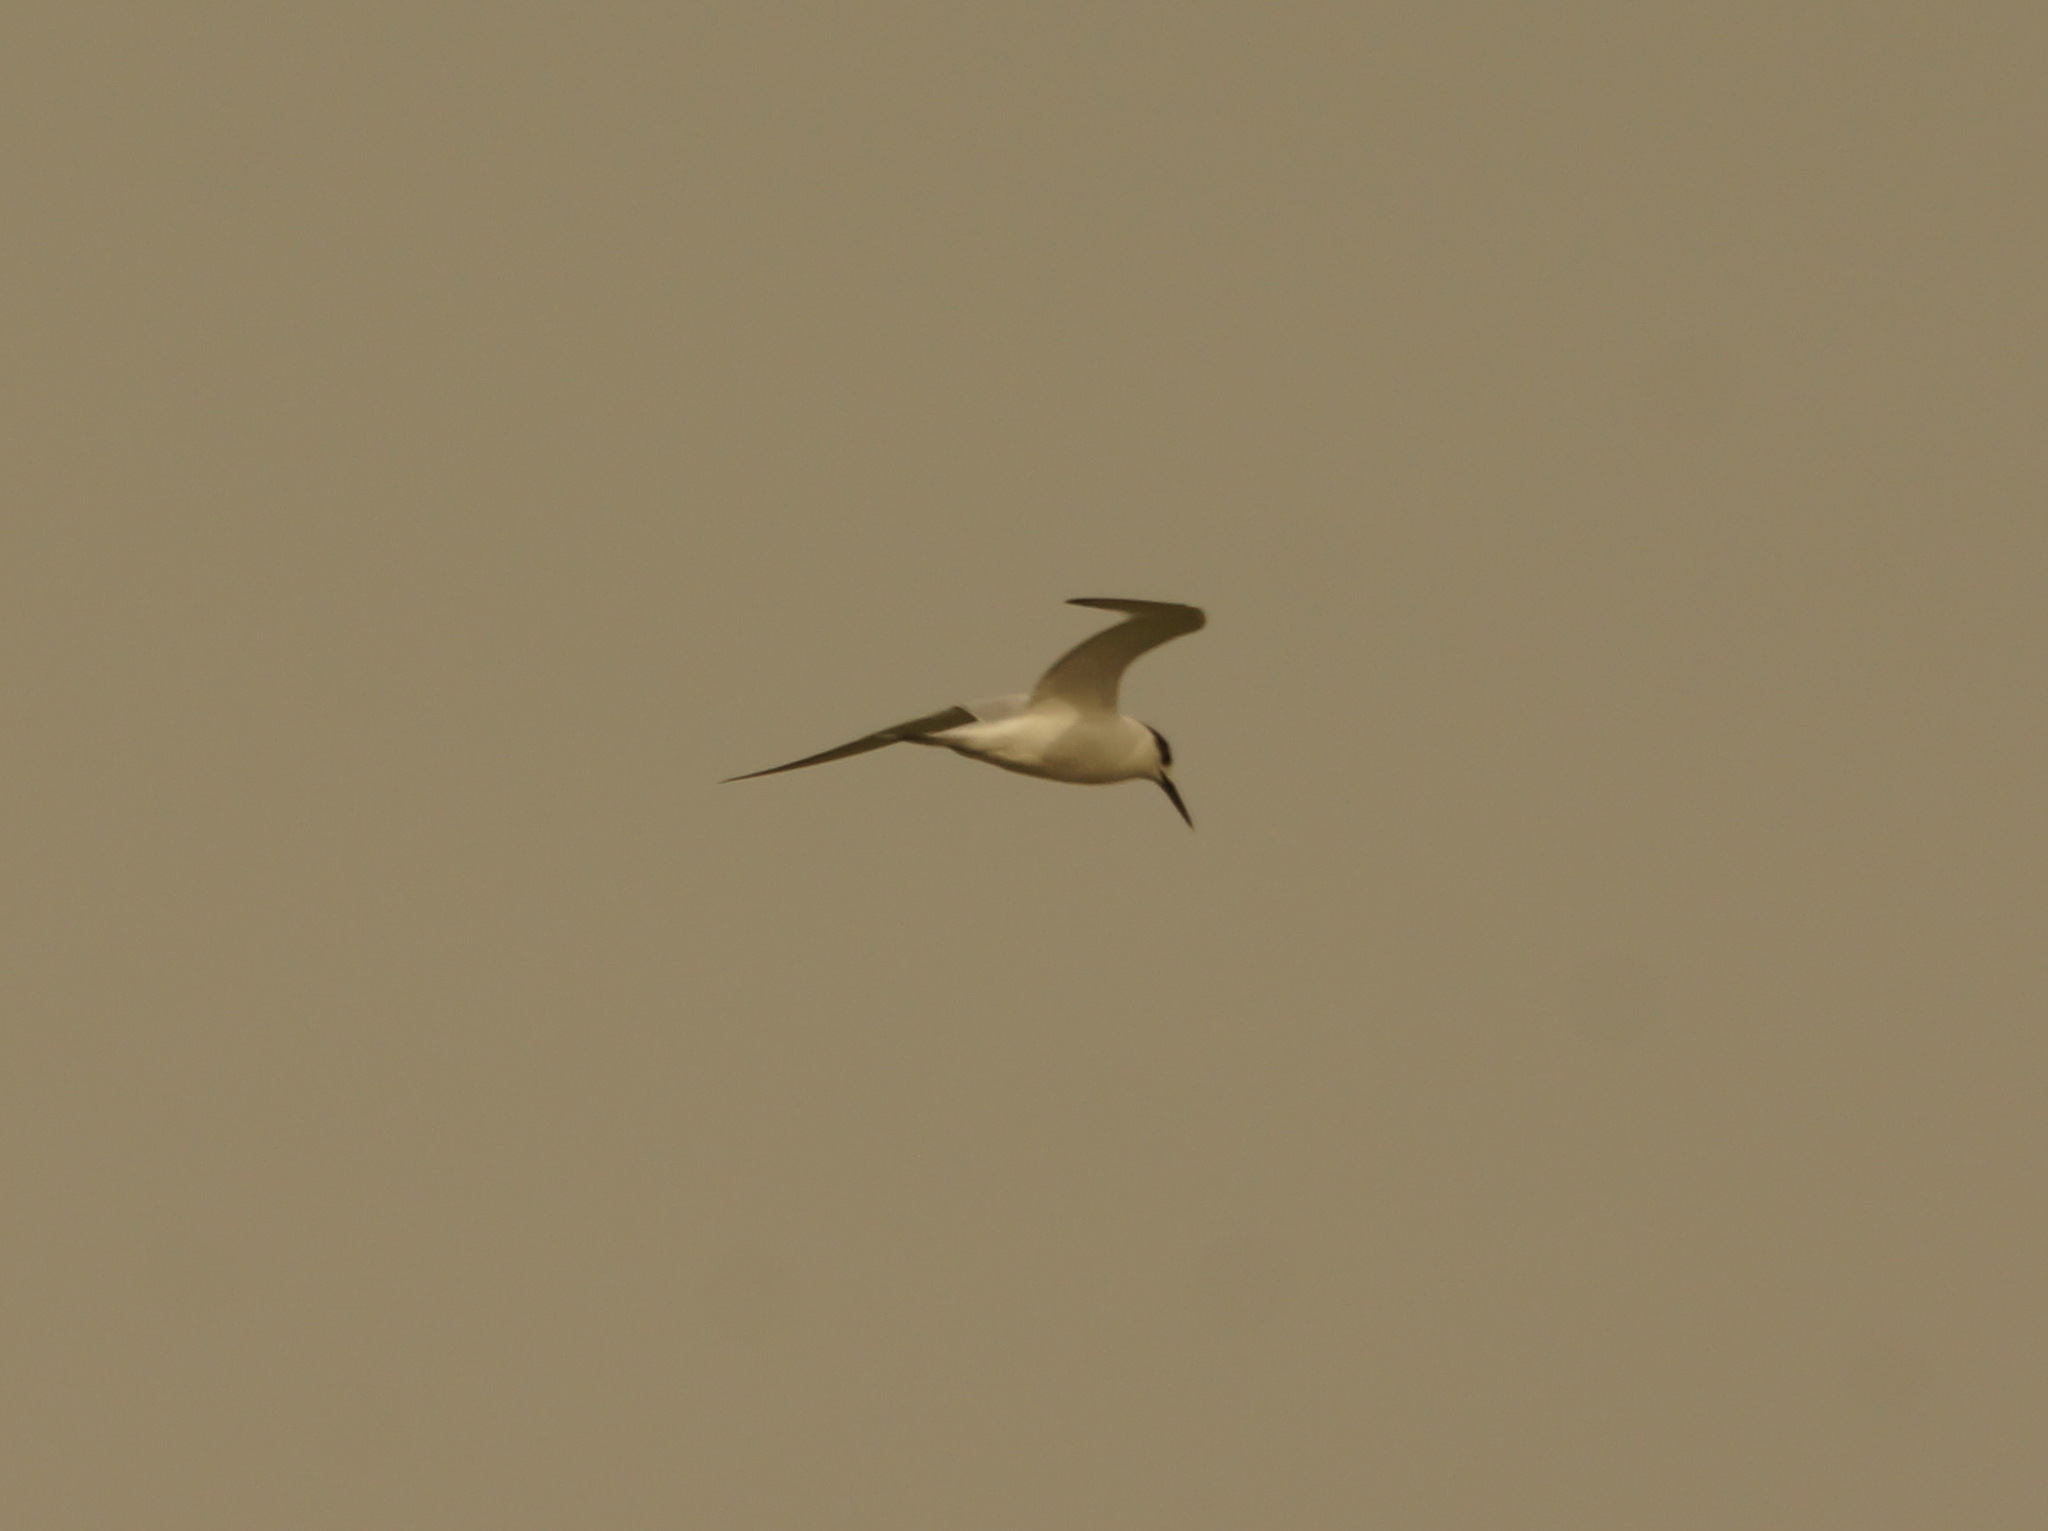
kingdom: Animalia
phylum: Chordata
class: Aves
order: Charadriiformes
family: Laridae
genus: Thalasseus
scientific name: Thalasseus sandvicensis
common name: Sandwich tern
